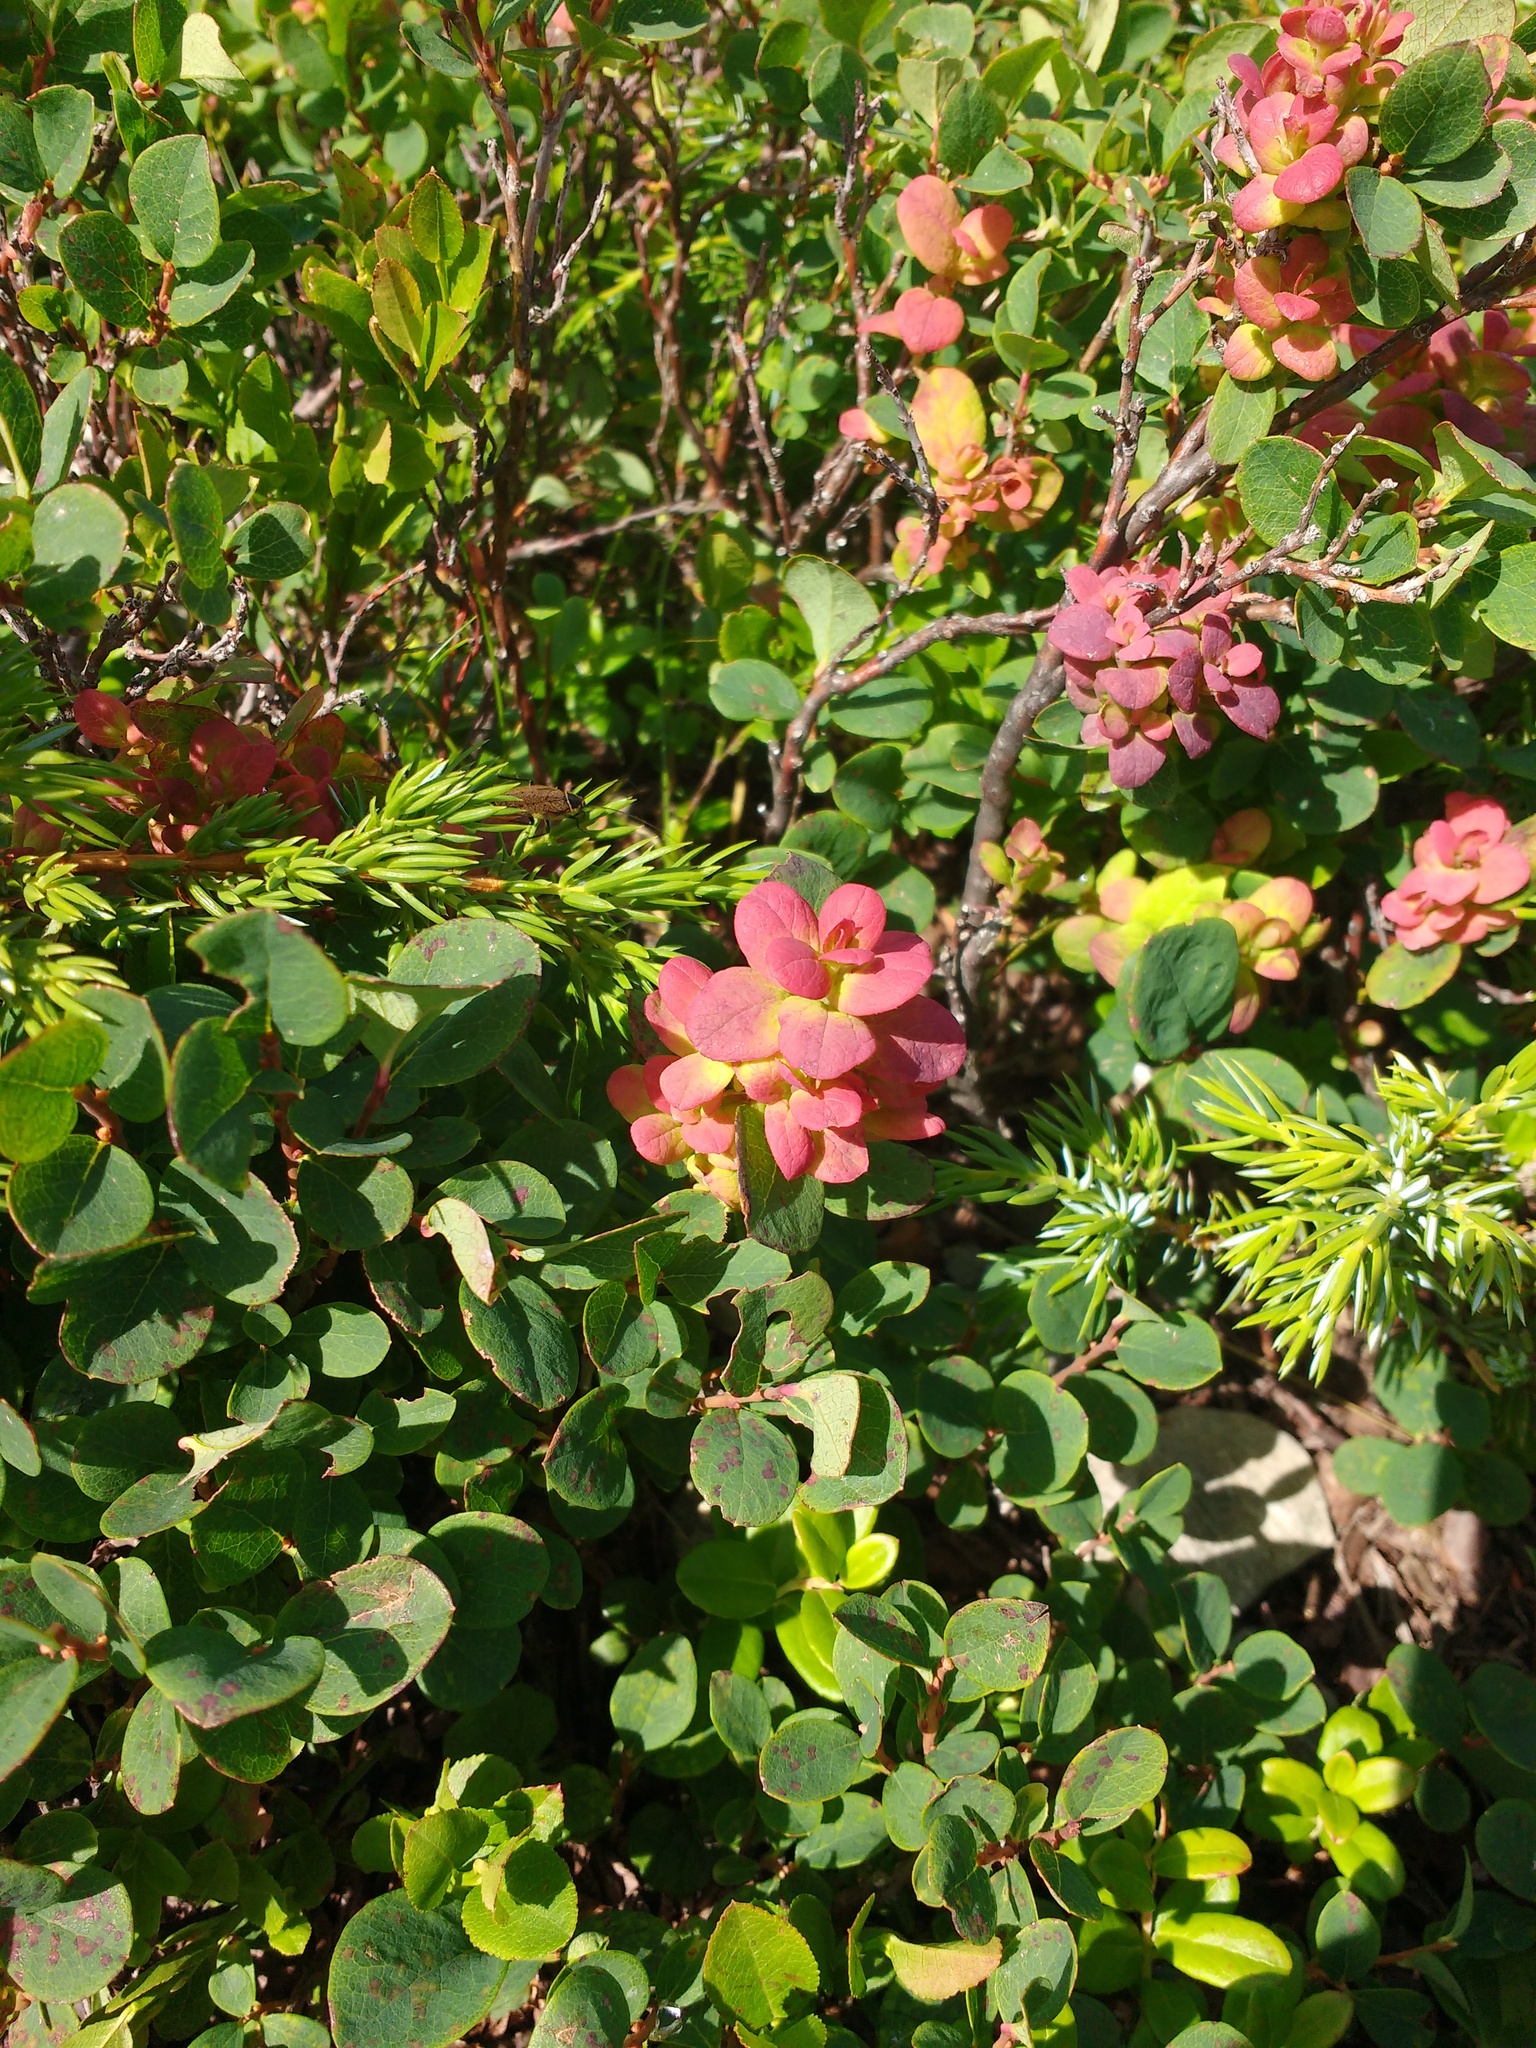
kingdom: Plantae
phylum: Tracheophyta
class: Magnoliopsida
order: Ericales
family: Ericaceae
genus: Vaccinium
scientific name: Vaccinium uliginosum
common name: Bog bilberry
